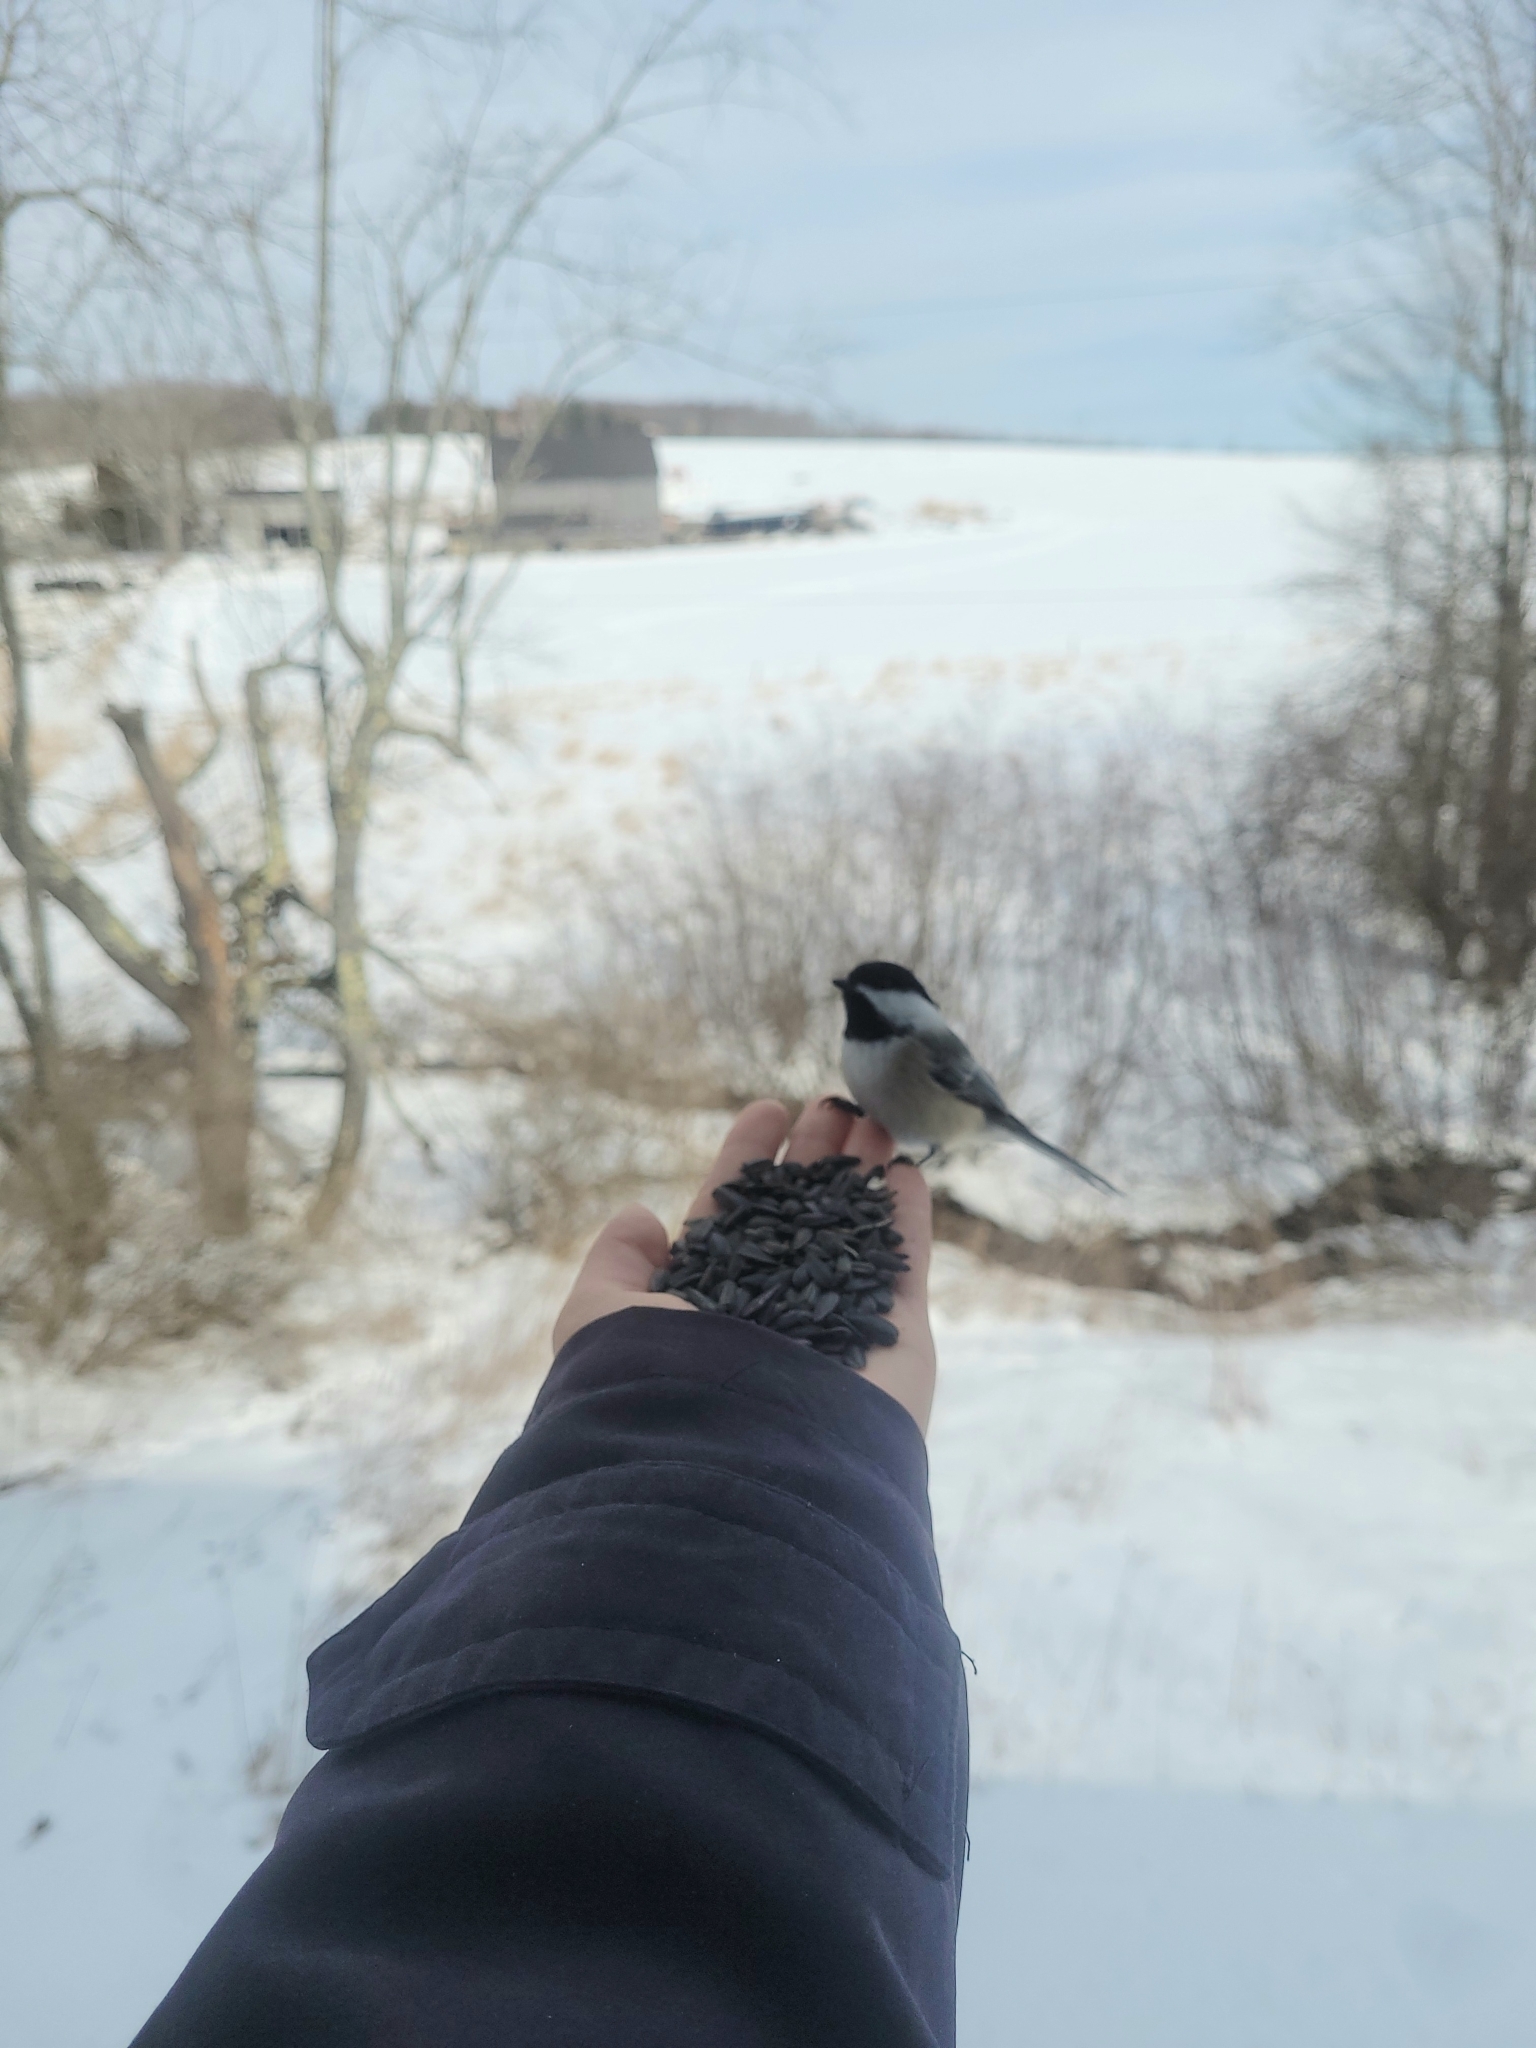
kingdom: Animalia
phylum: Chordata
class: Aves
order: Passeriformes
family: Paridae
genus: Poecile
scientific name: Poecile atricapillus
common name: Black-capped chickadee
